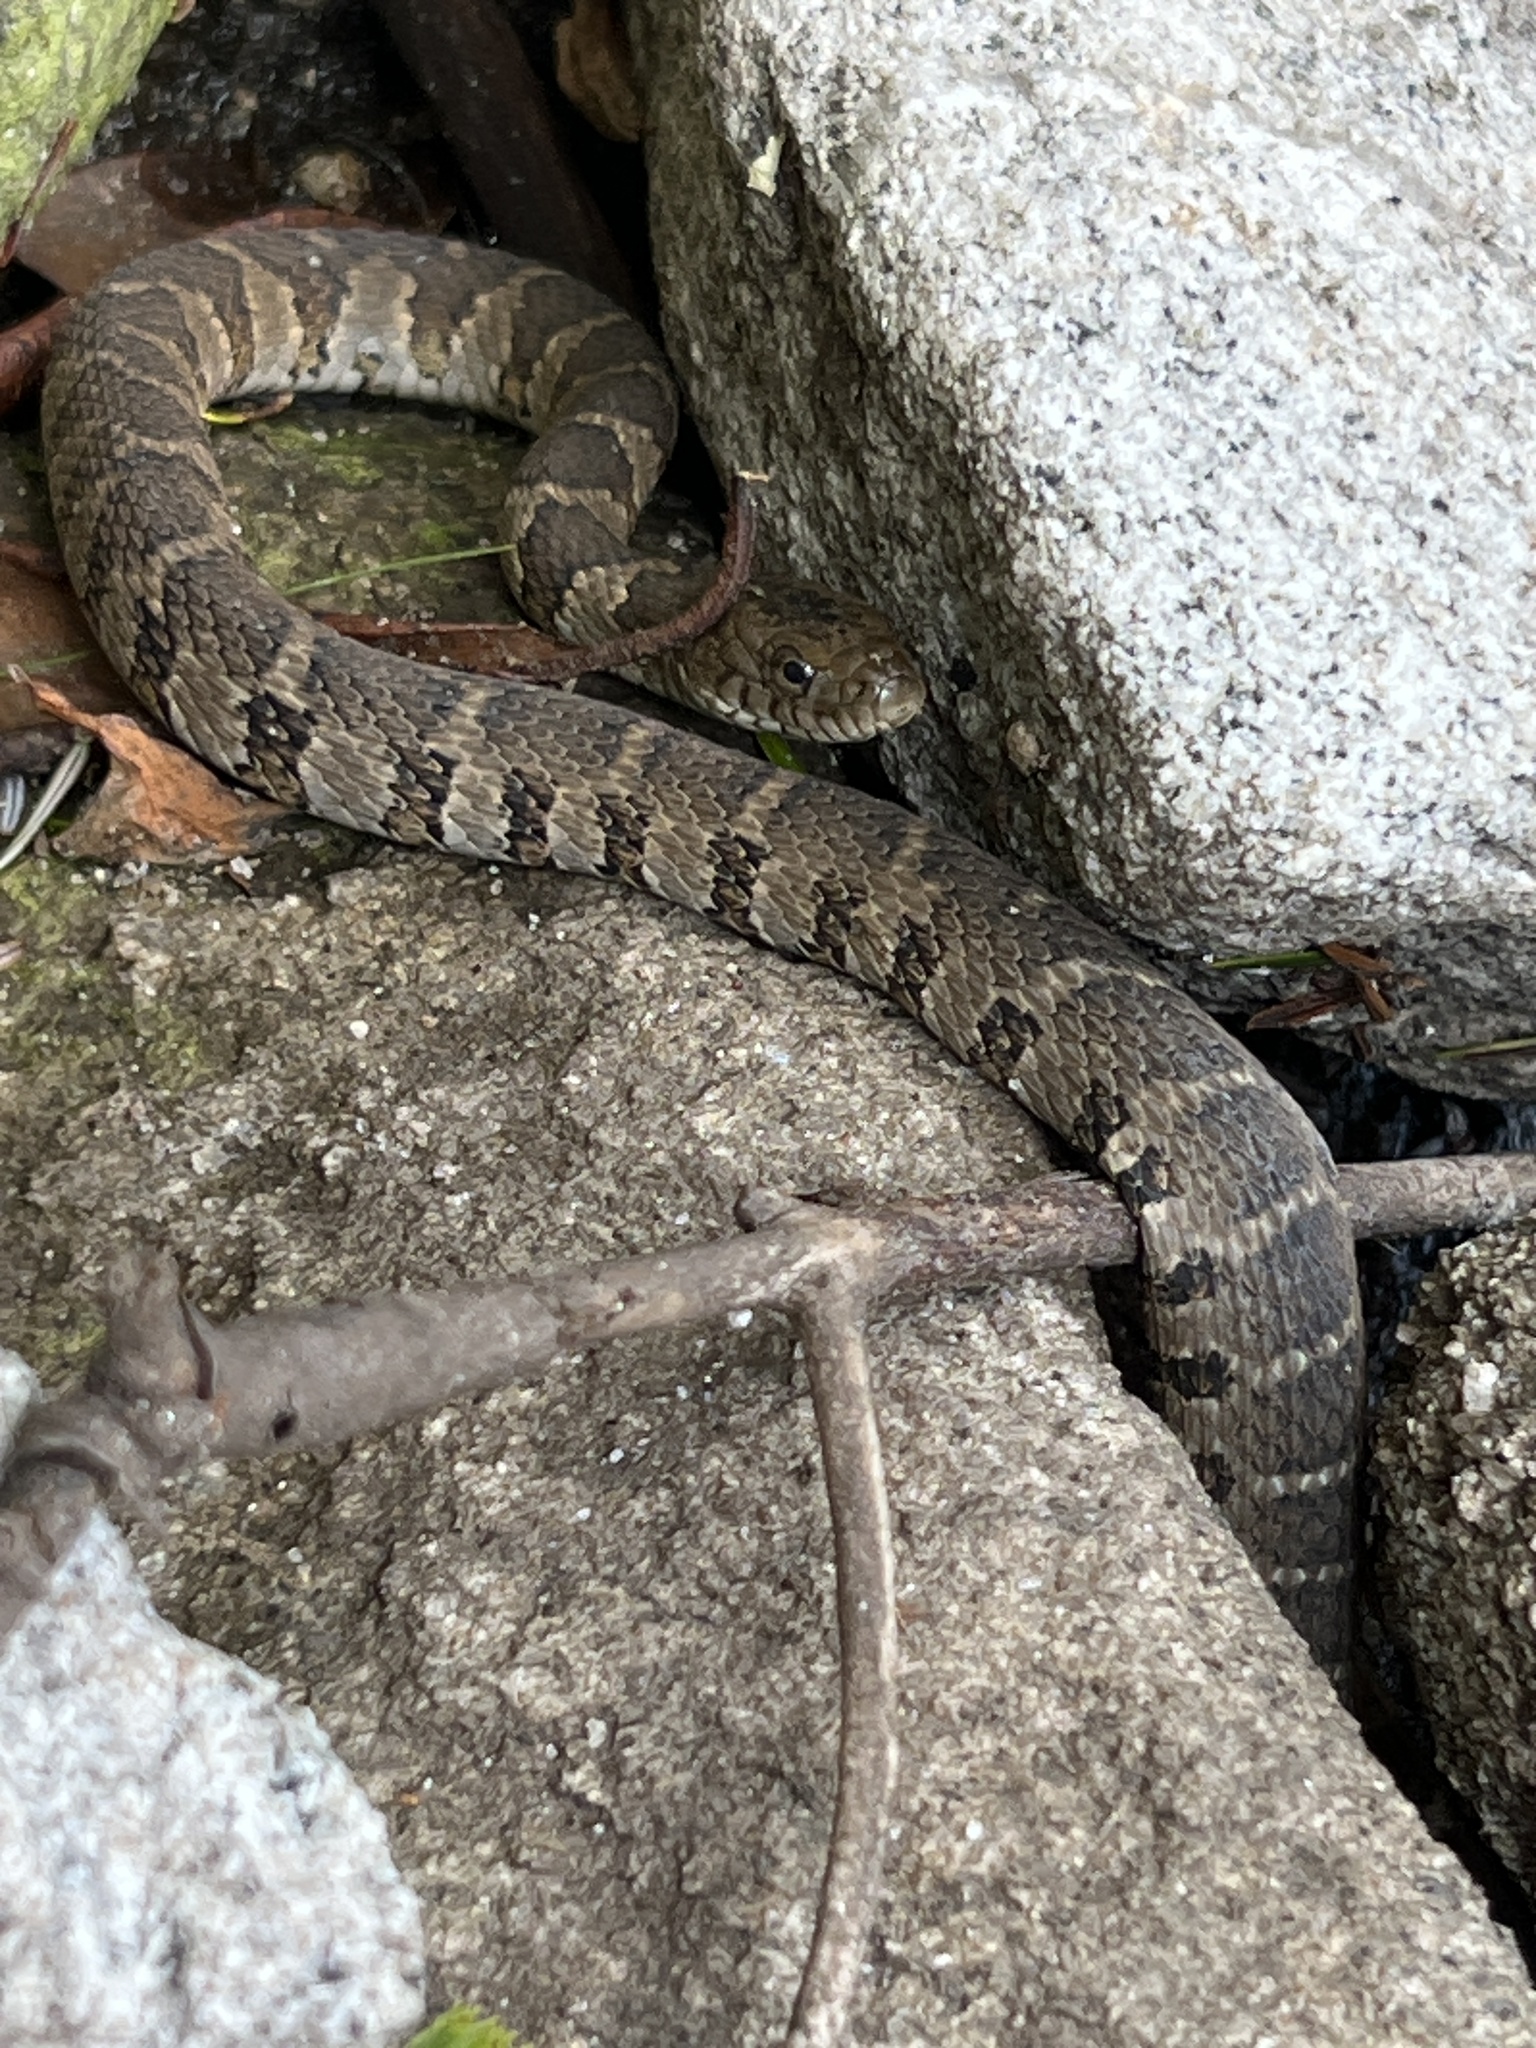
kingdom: Animalia
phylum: Chordata
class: Squamata
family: Colubridae
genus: Nerodia
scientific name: Nerodia sipedon
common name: Northern water snake
